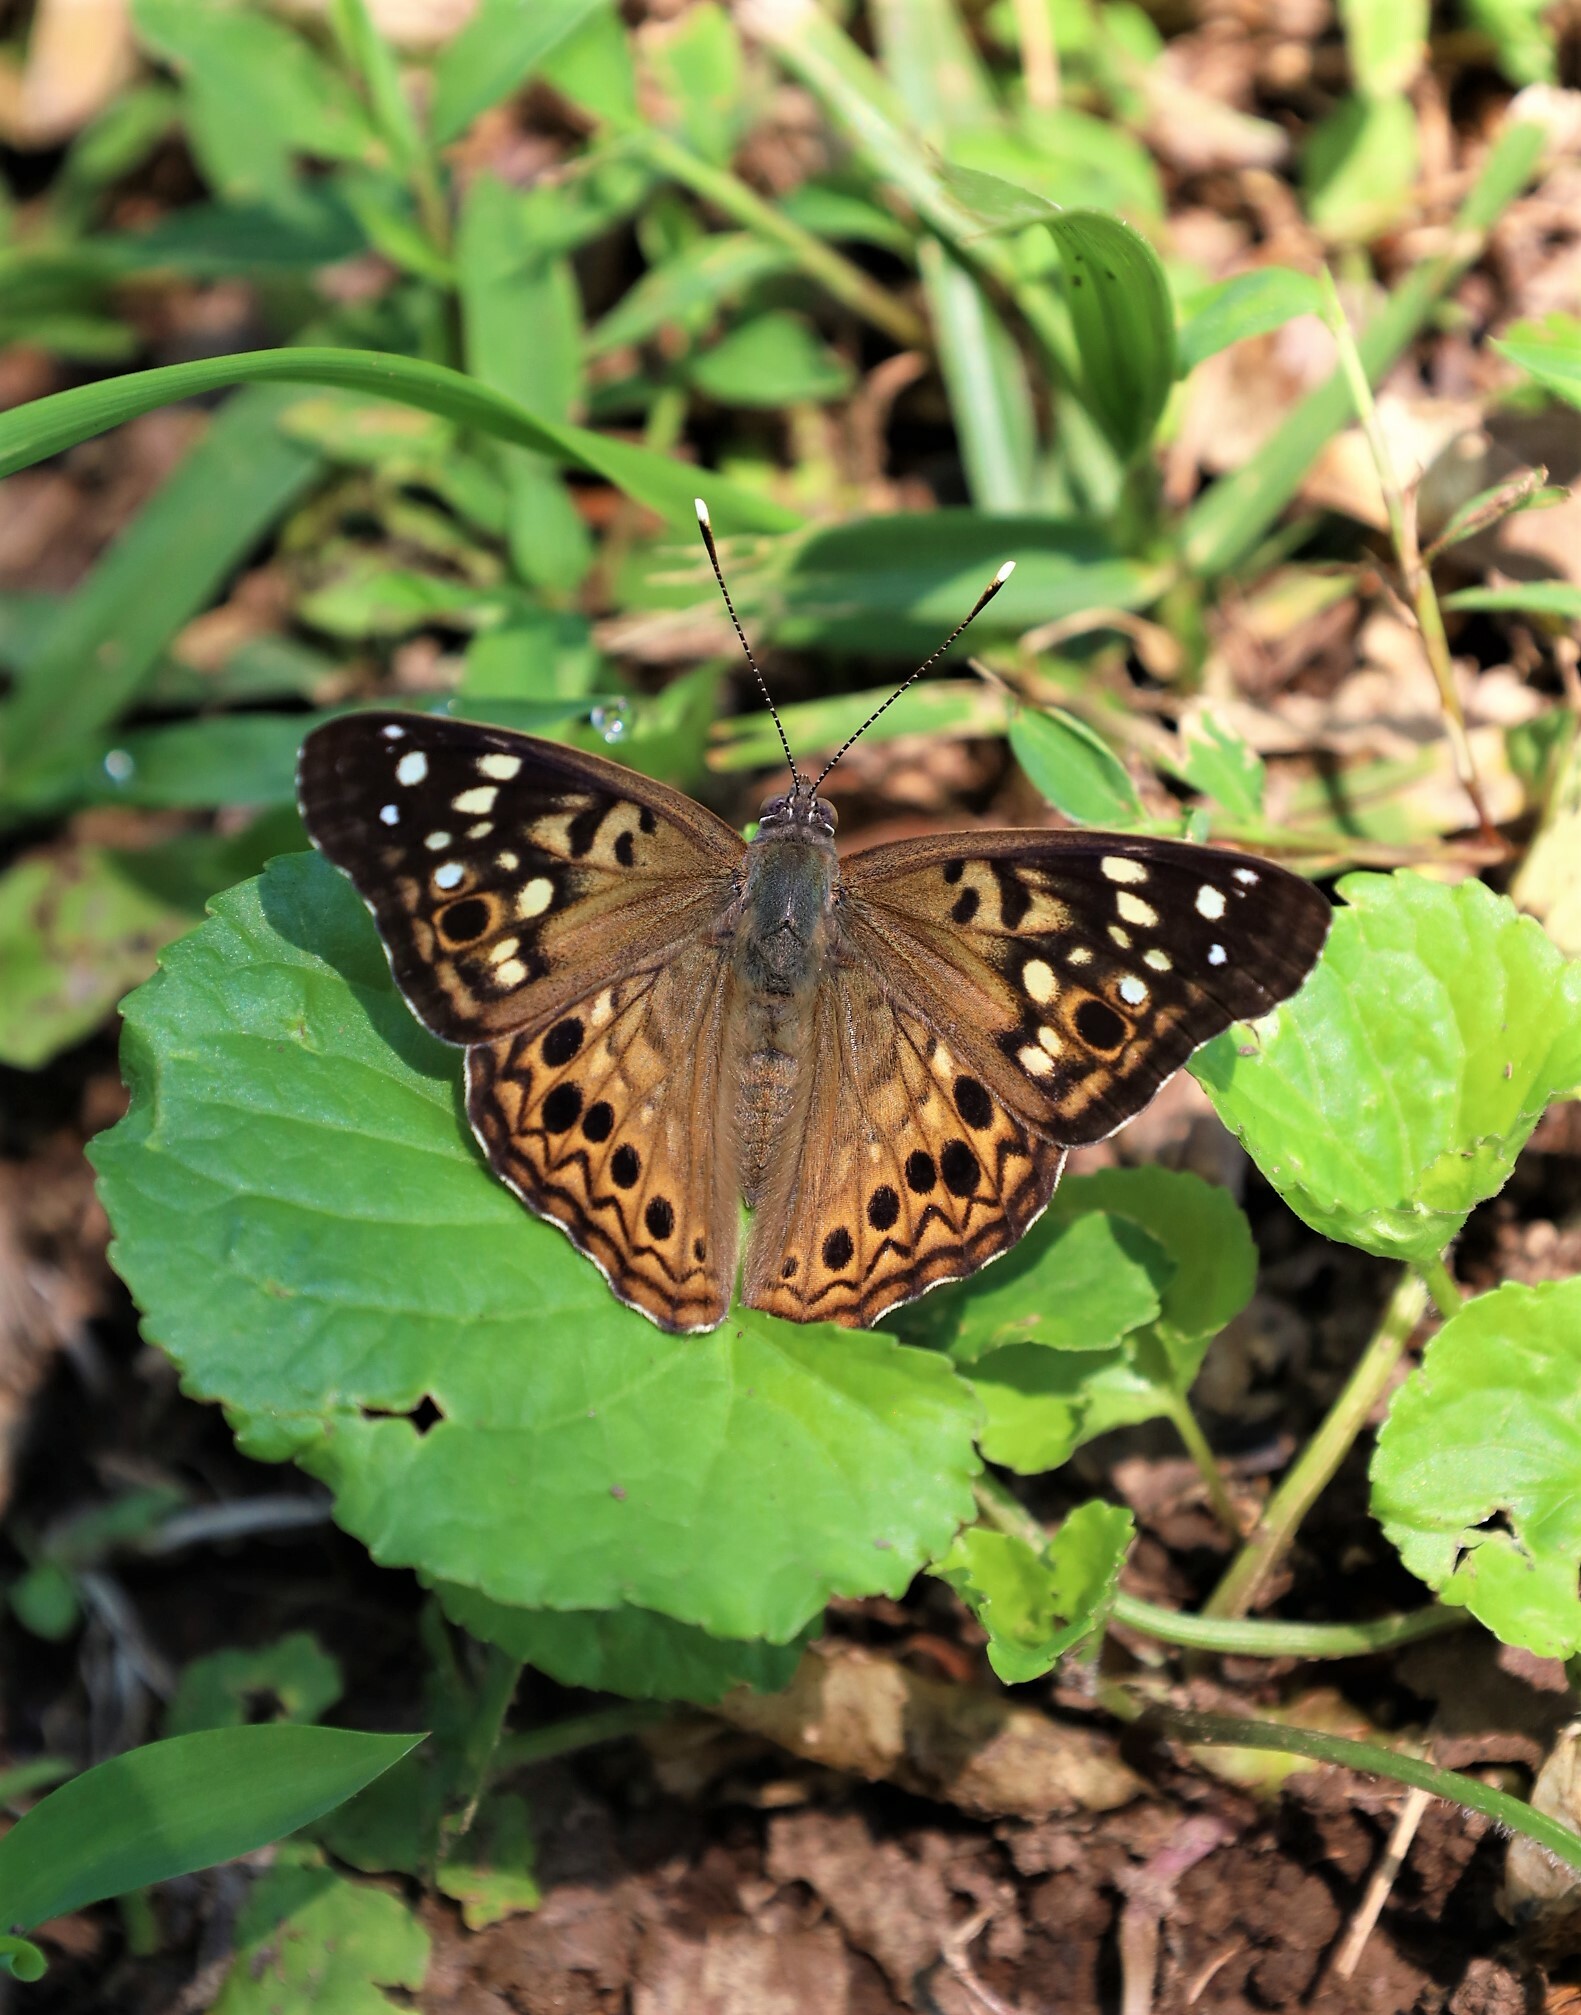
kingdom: Animalia
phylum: Arthropoda
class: Insecta
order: Lepidoptera
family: Nymphalidae
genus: Asterocampa
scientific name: Asterocampa celtis
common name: Hackberry emperor
